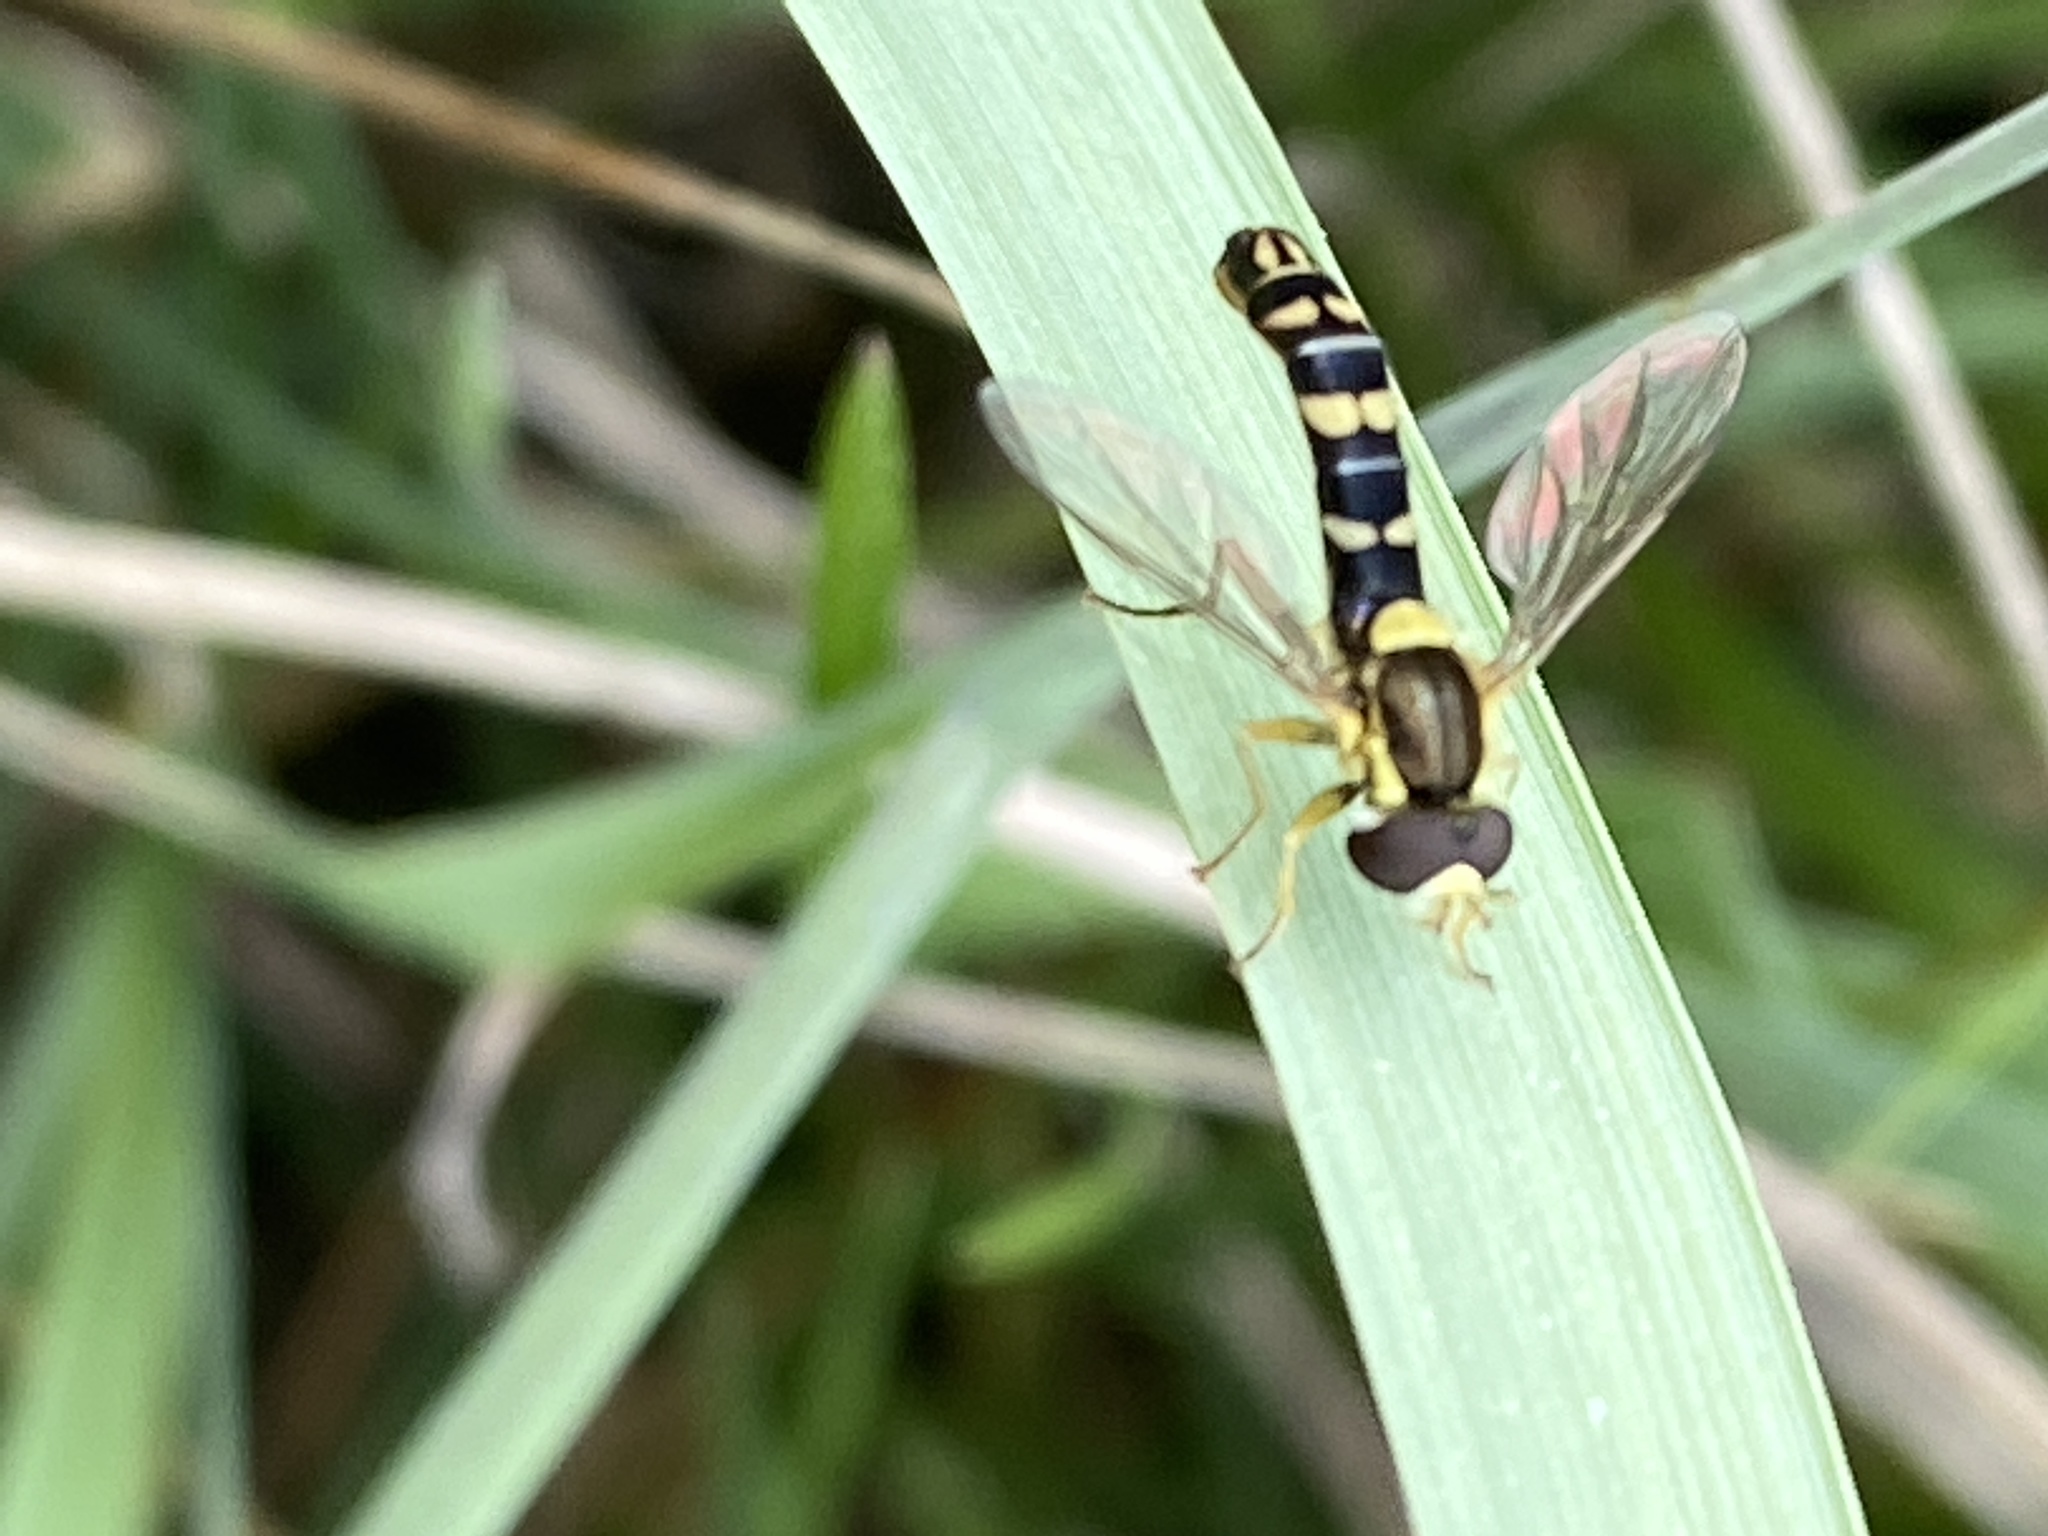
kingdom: Animalia
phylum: Arthropoda
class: Insecta
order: Diptera
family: Syrphidae
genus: Sphaerophoria
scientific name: Sphaerophoria scripta
